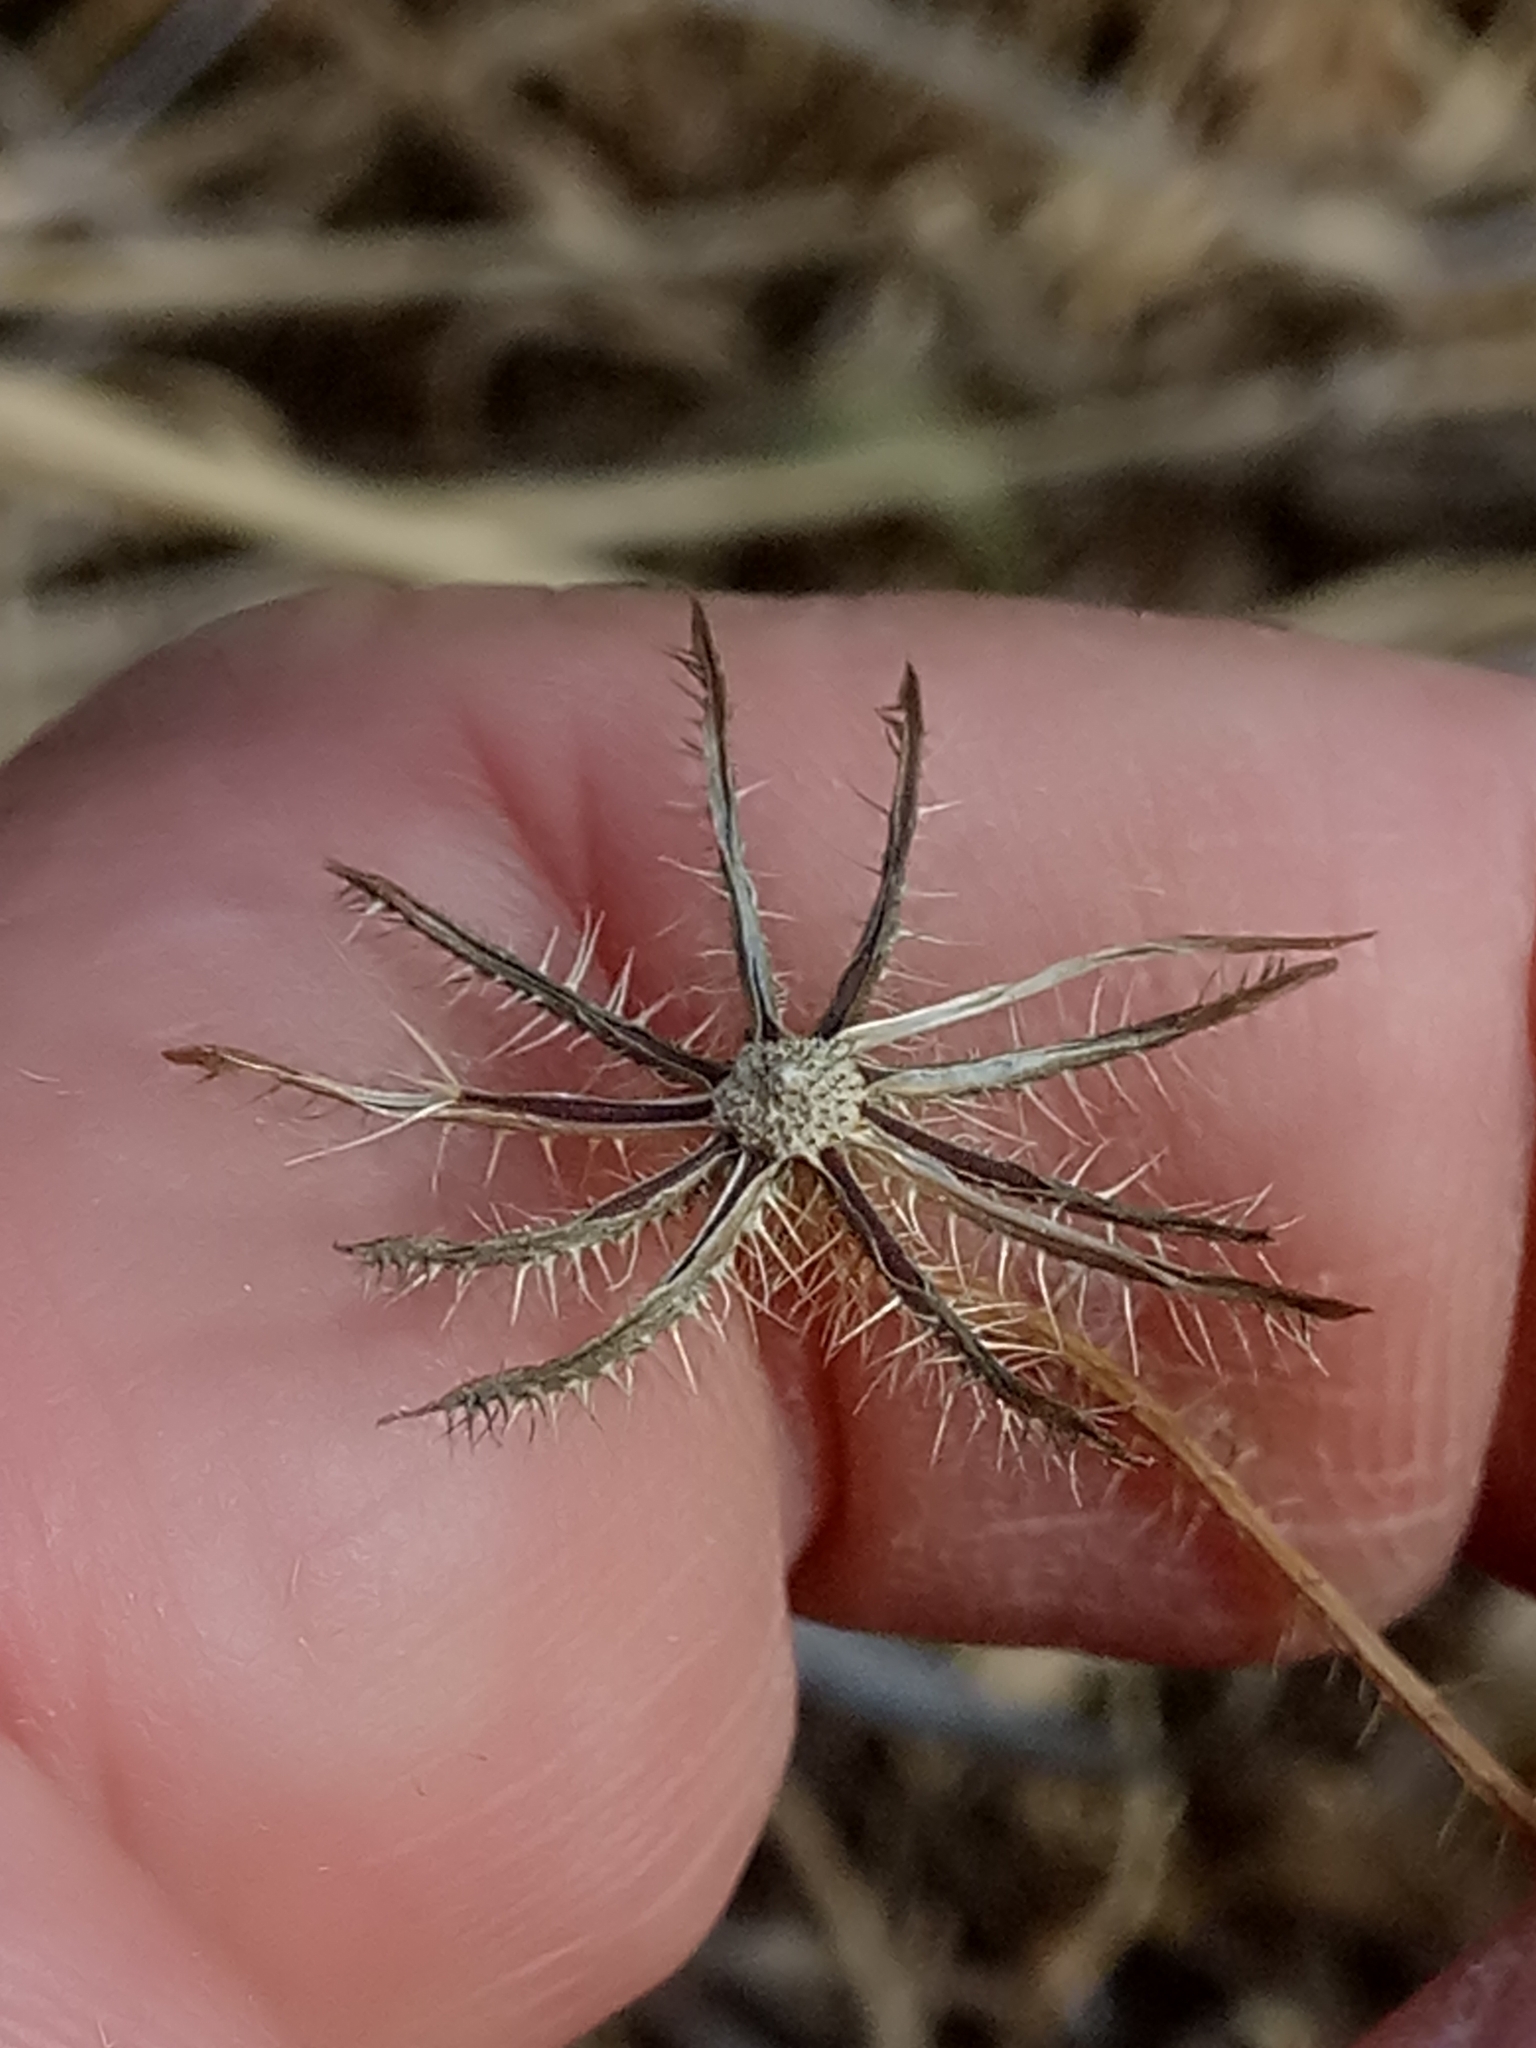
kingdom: Plantae
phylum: Tracheophyta
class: Magnoliopsida
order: Asterales
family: Asteraceae
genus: Achyrophorus
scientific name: Achyrophorus valdesii
